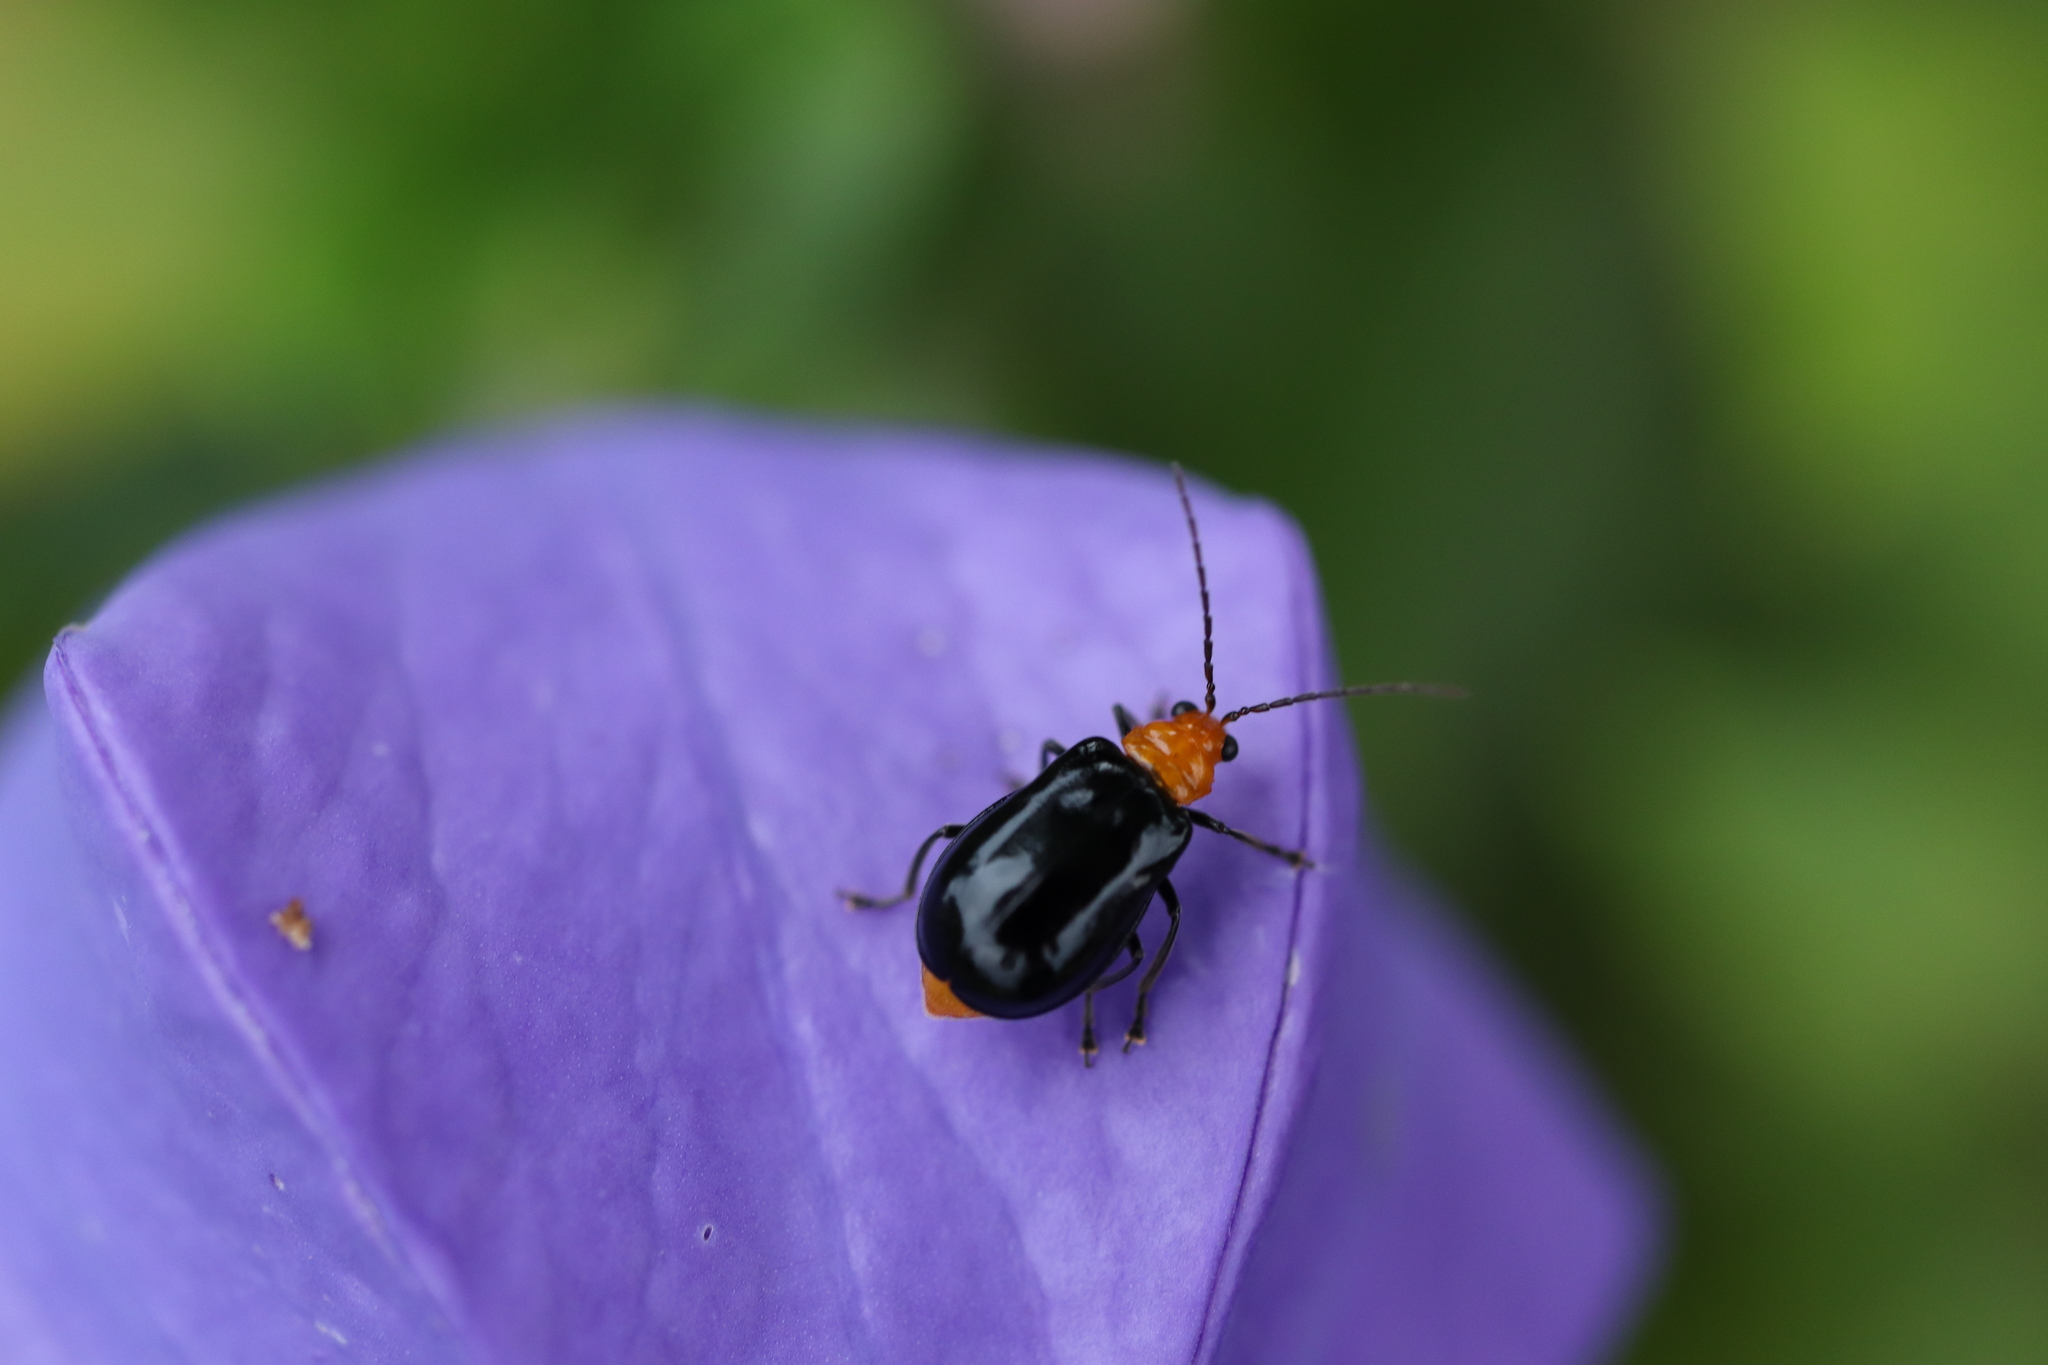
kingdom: Animalia
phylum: Arthropoda
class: Insecta
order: Coleoptera
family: Chrysomelidae
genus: Aulacophora
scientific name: Aulacophora nigripennis
